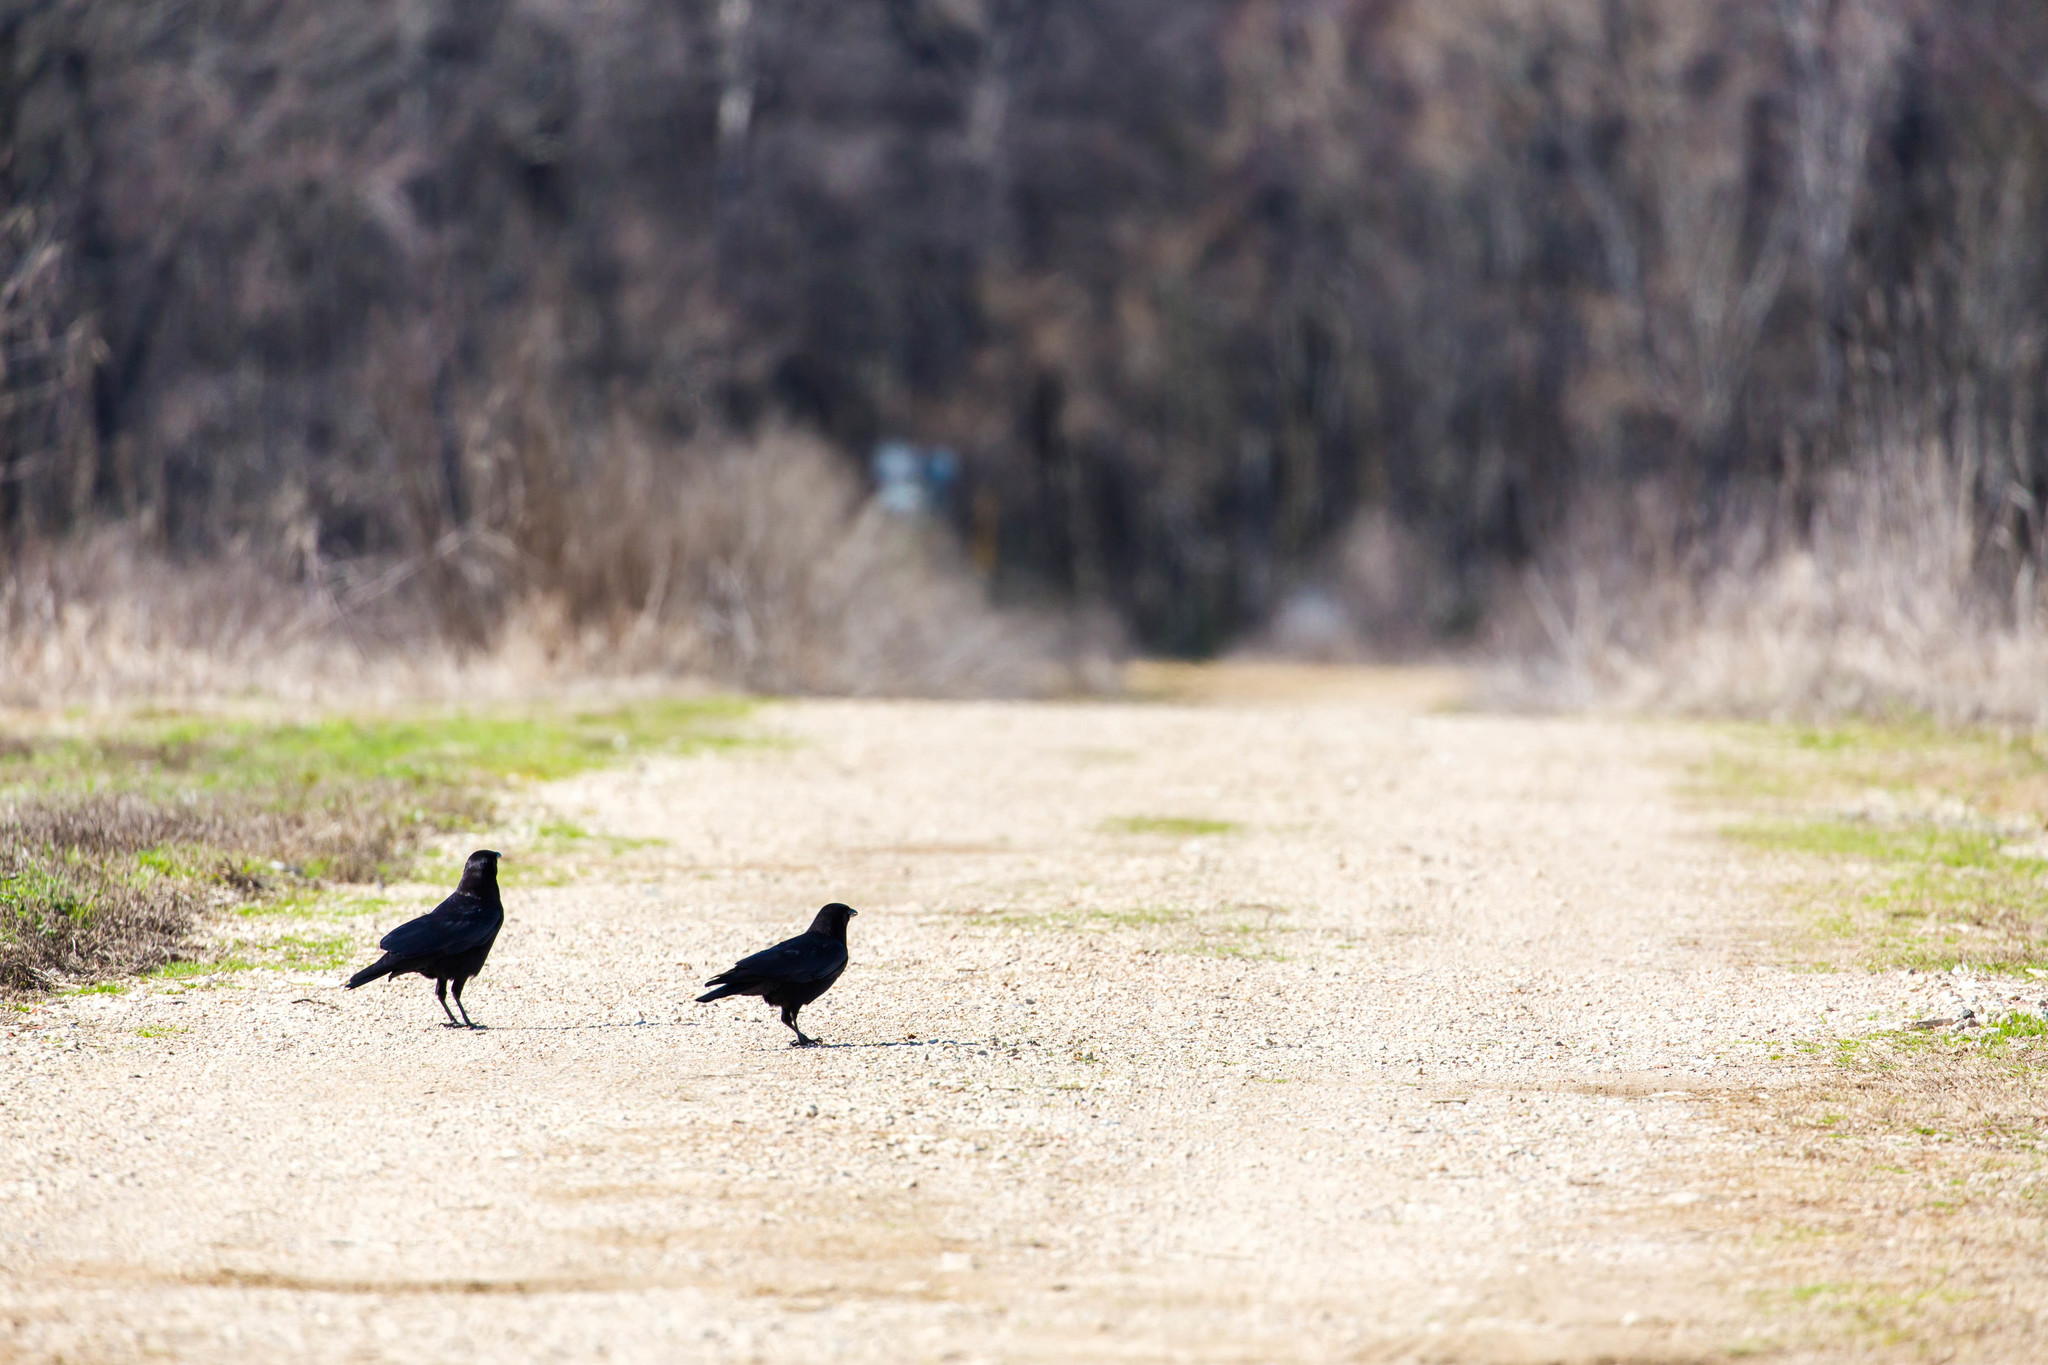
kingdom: Animalia
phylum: Chordata
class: Aves
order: Passeriformes
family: Corvidae
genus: Corvus
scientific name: Corvus brachyrhynchos
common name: American crow
